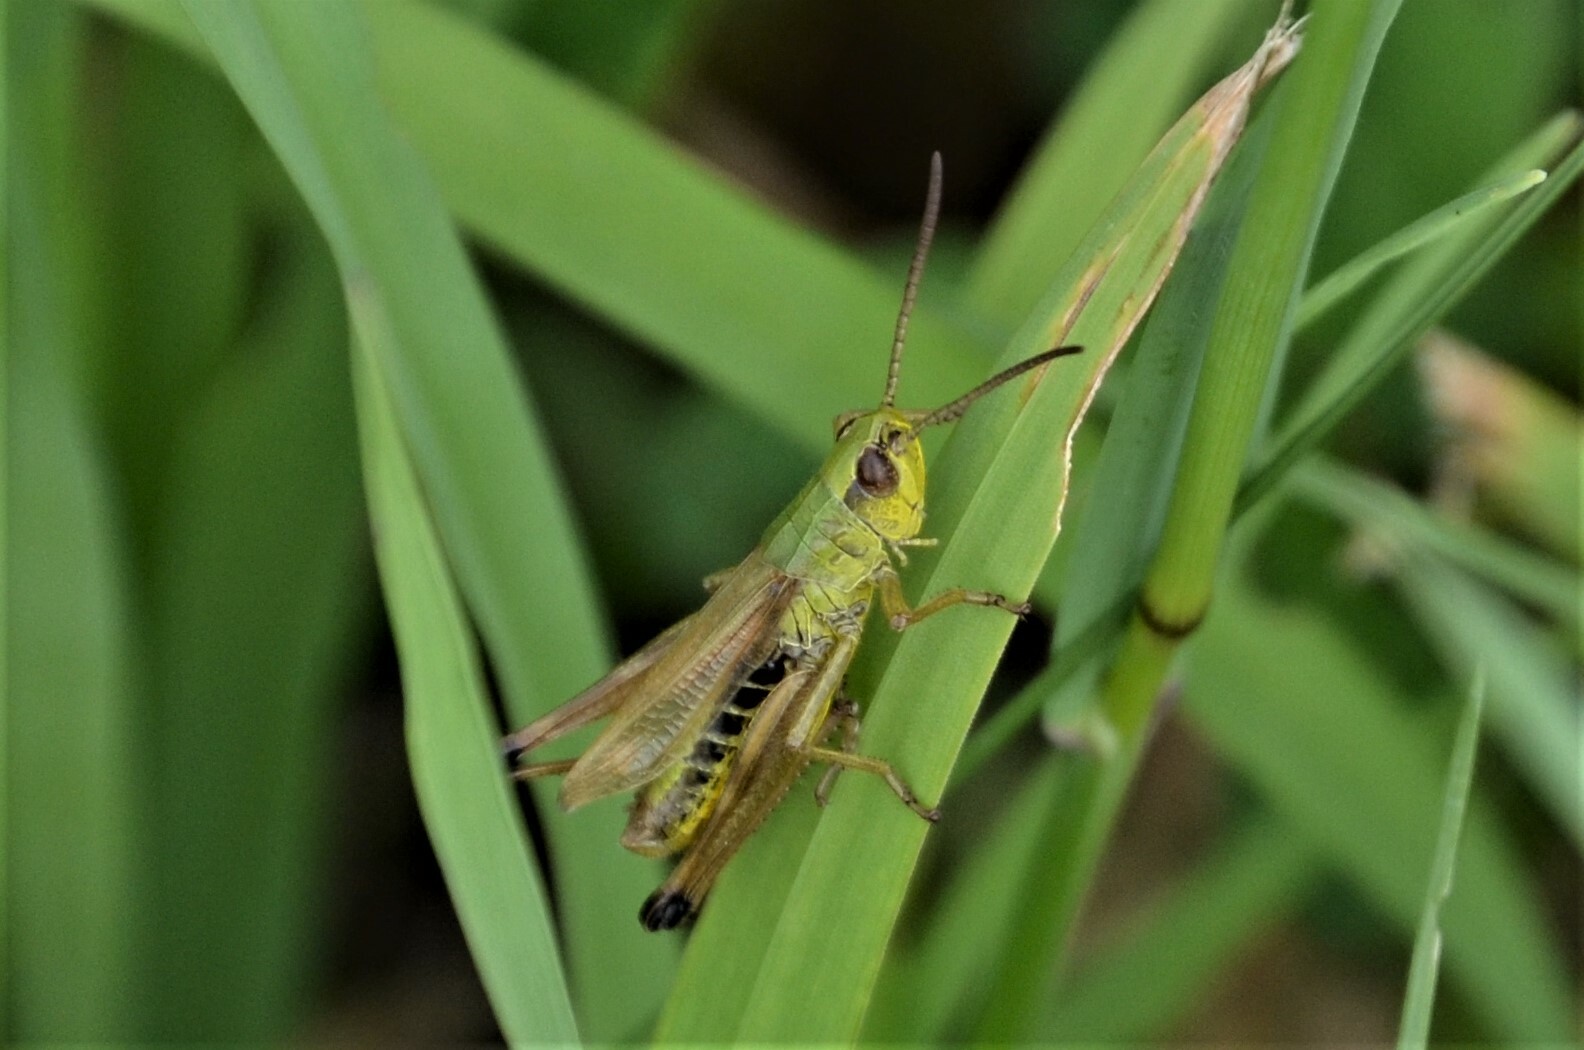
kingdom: Animalia
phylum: Arthropoda
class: Insecta
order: Orthoptera
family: Acrididae
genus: Pseudochorthippus
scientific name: Pseudochorthippus parallelus
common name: Meadow grasshopper
